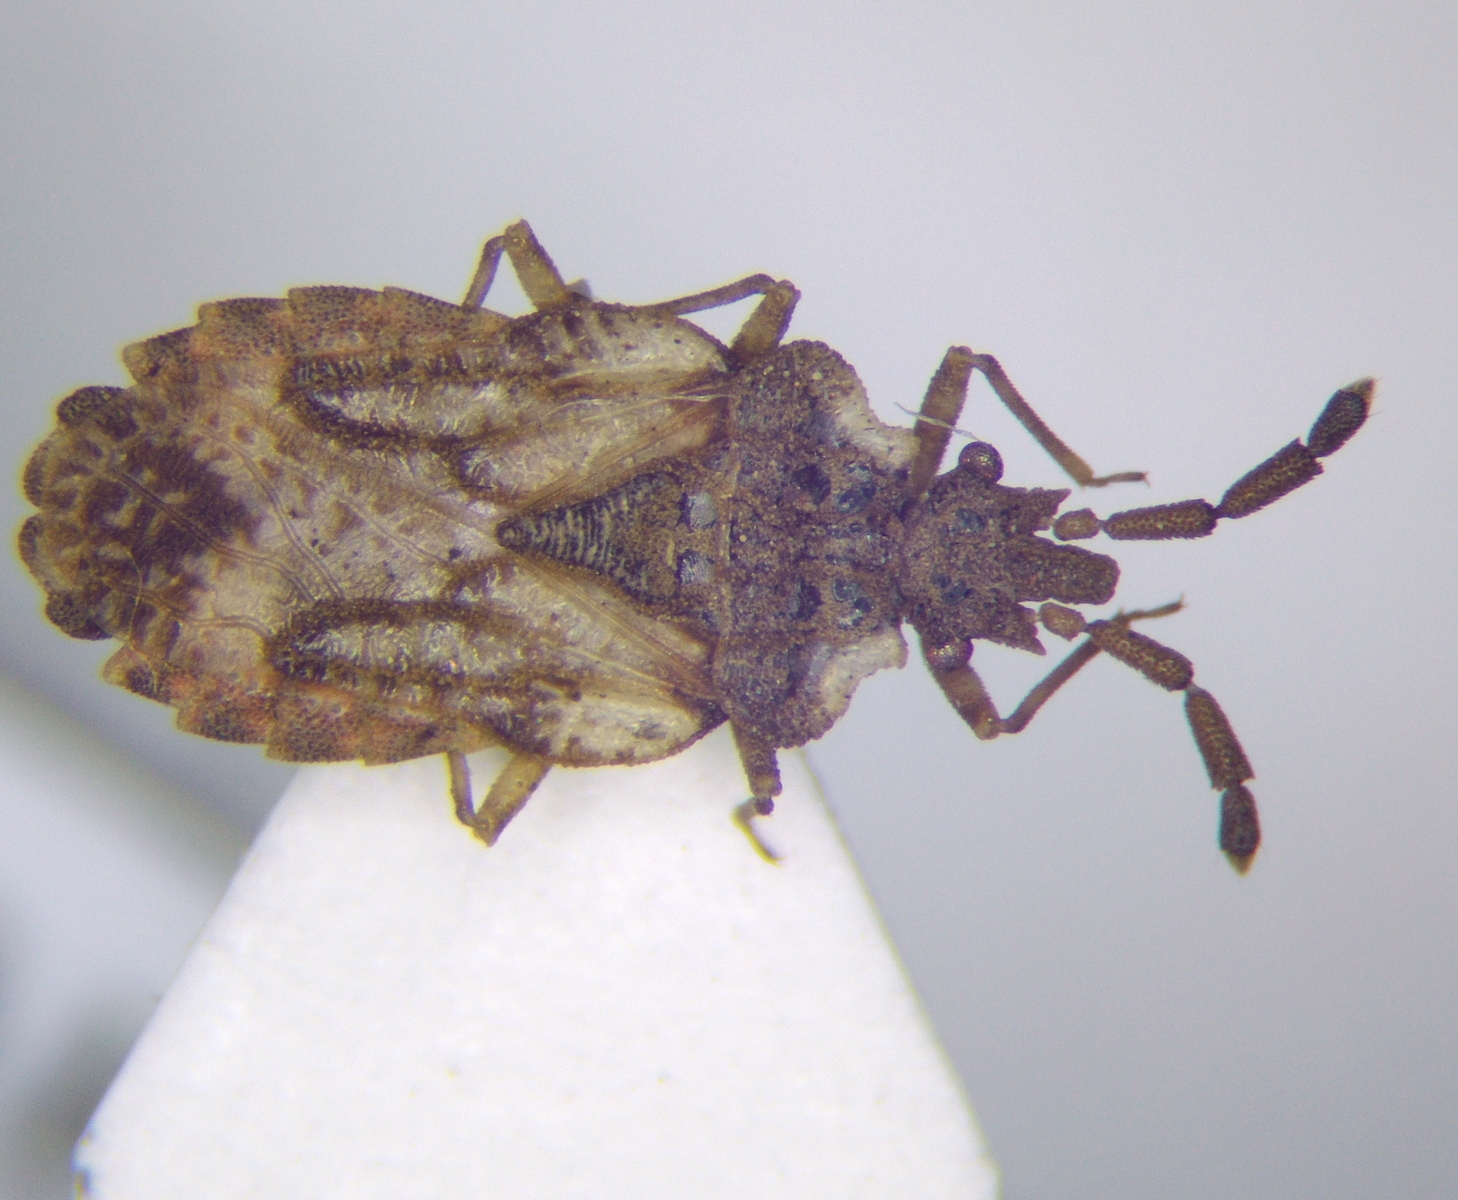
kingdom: Animalia
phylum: Arthropoda
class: Insecta
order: Hemiptera
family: Aradidae
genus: Aradus
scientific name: Aradus depressus
